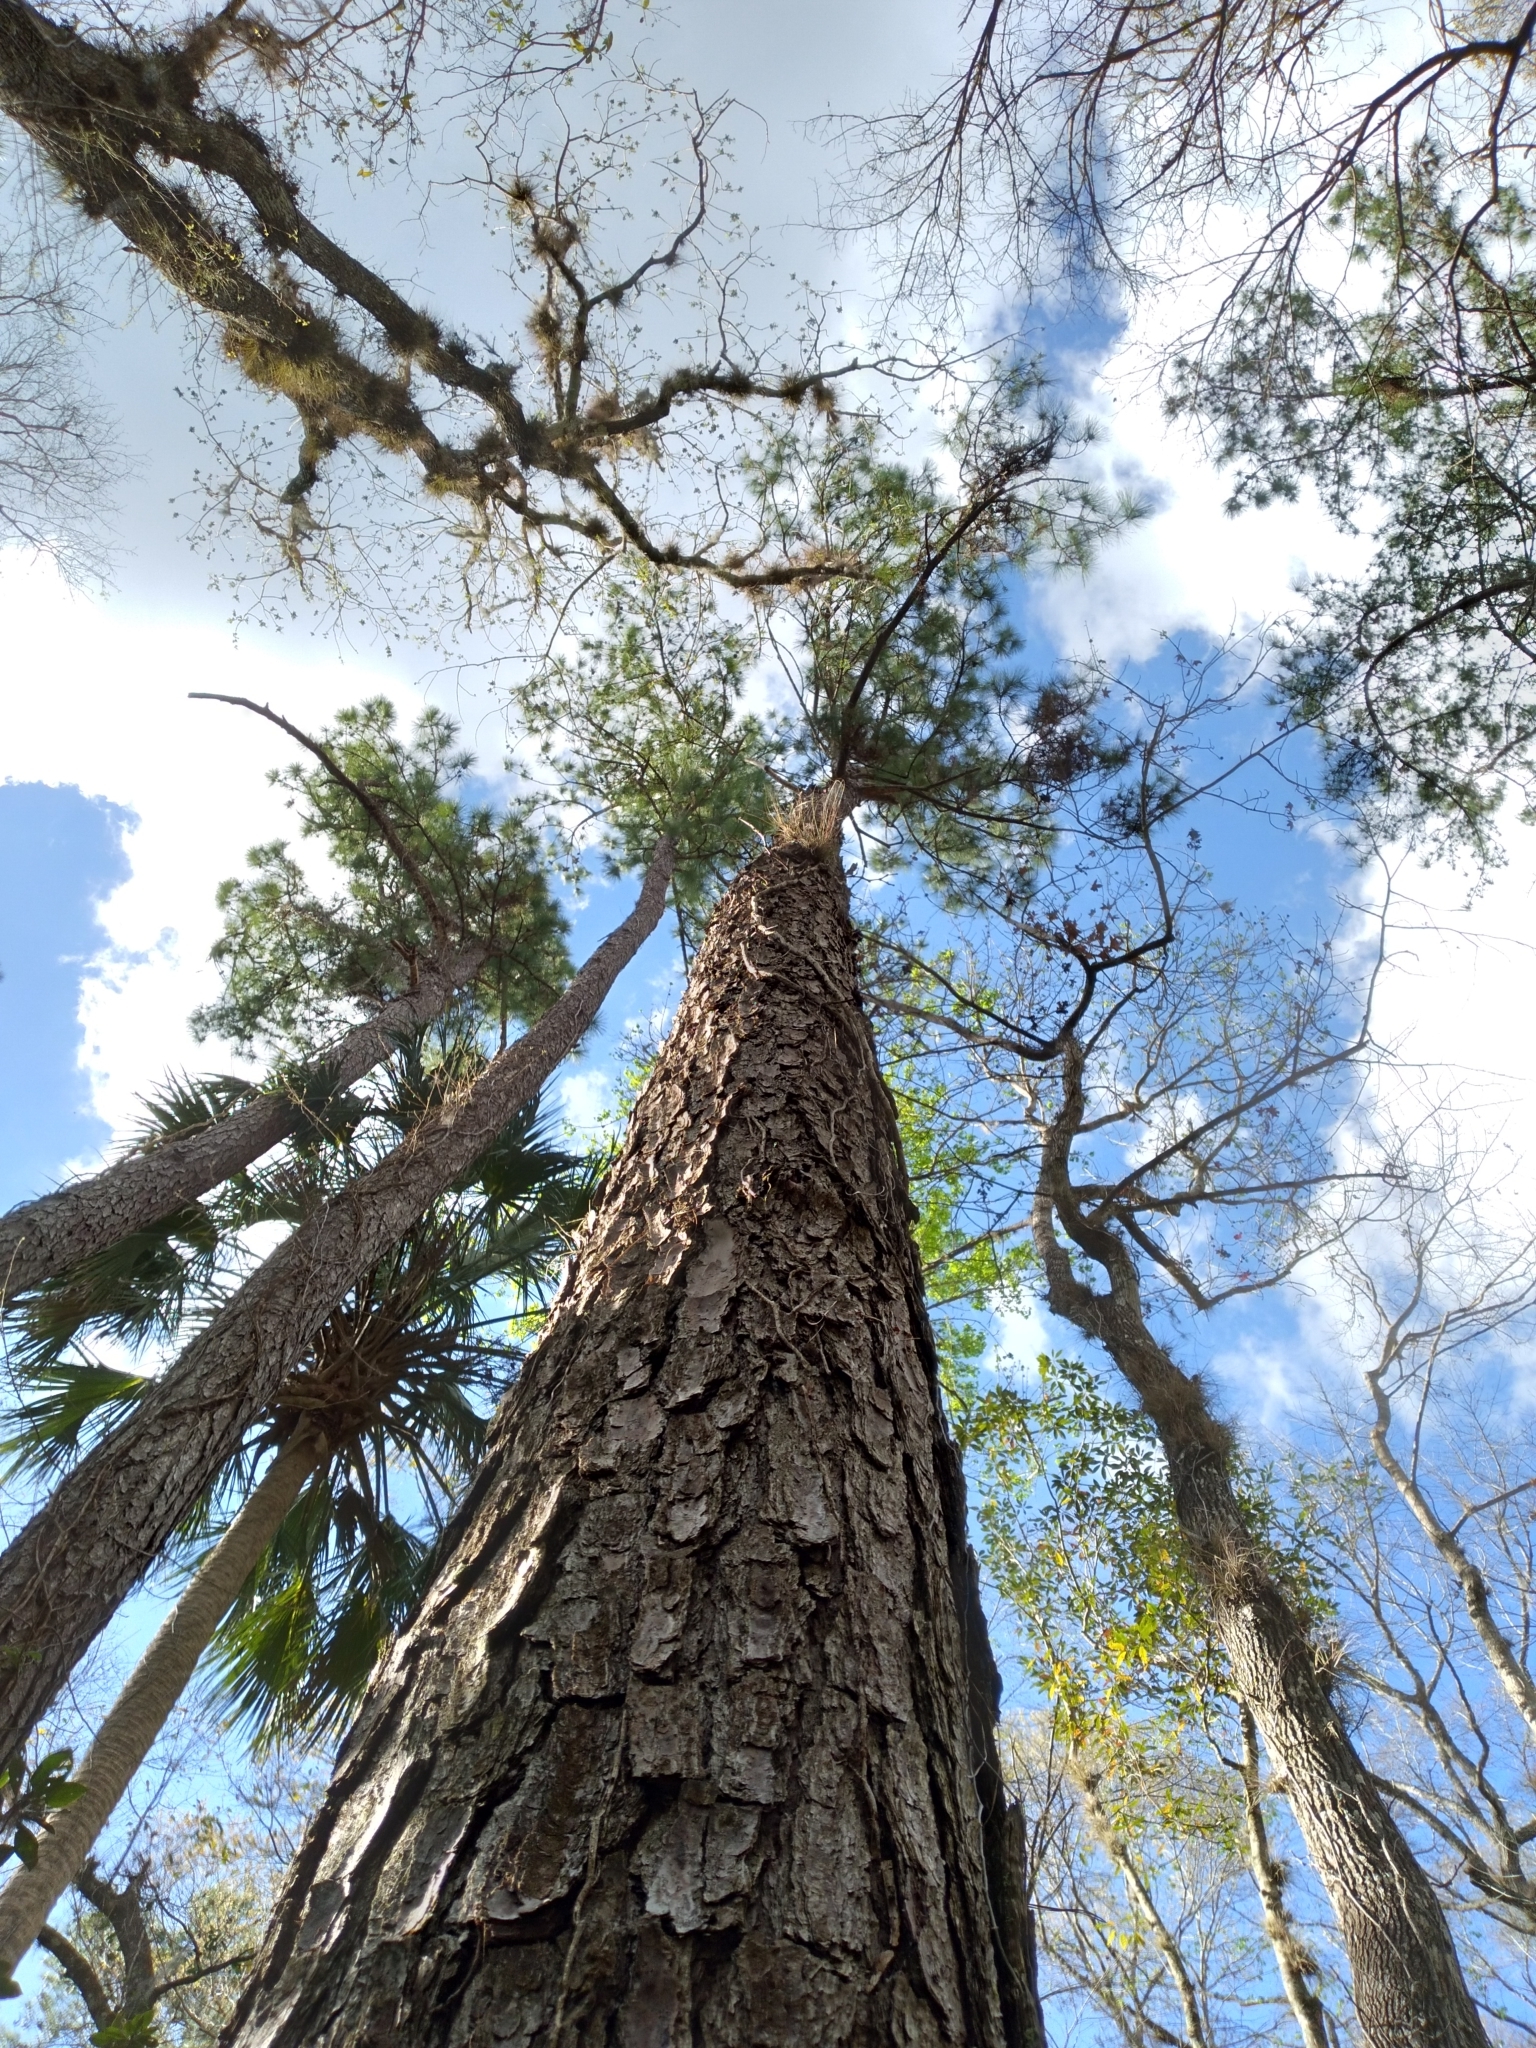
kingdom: Plantae
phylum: Tracheophyta
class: Pinopsida
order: Pinales
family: Pinaceae
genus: Pinus
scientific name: Pinus taeda
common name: Loblolly pine
